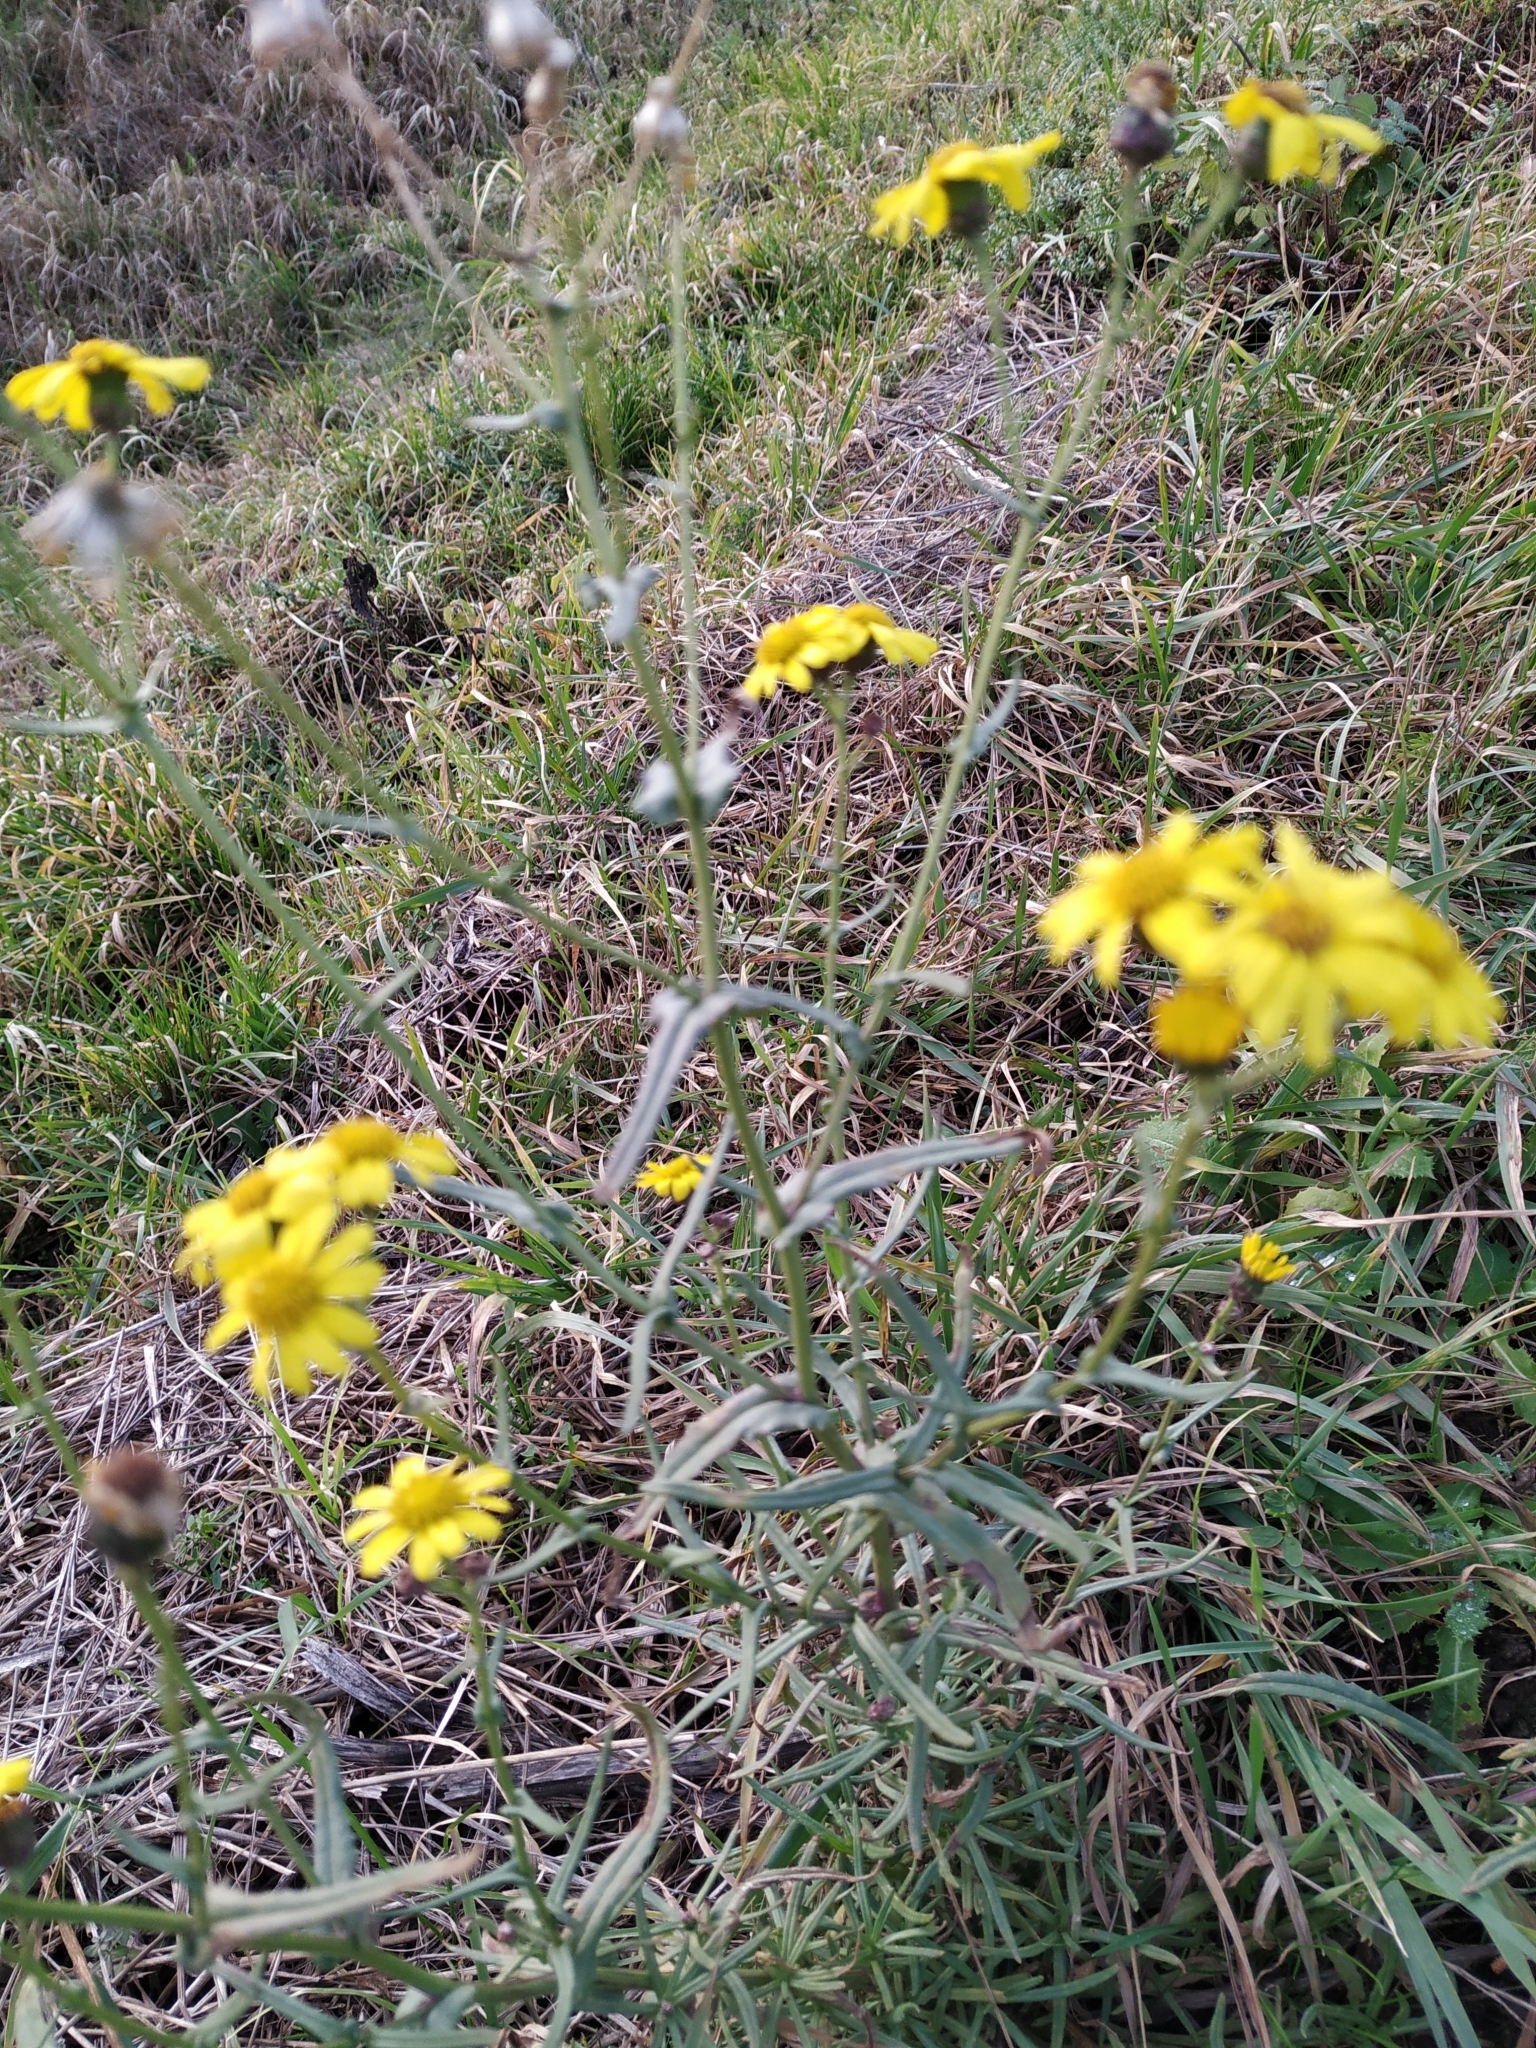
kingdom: Plantae
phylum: Tracheophyta
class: Magnoliopsida
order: Asterales
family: Asteraceae
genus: Senecio
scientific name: Senecio inaequidens
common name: Narrow-leaved ragwort
